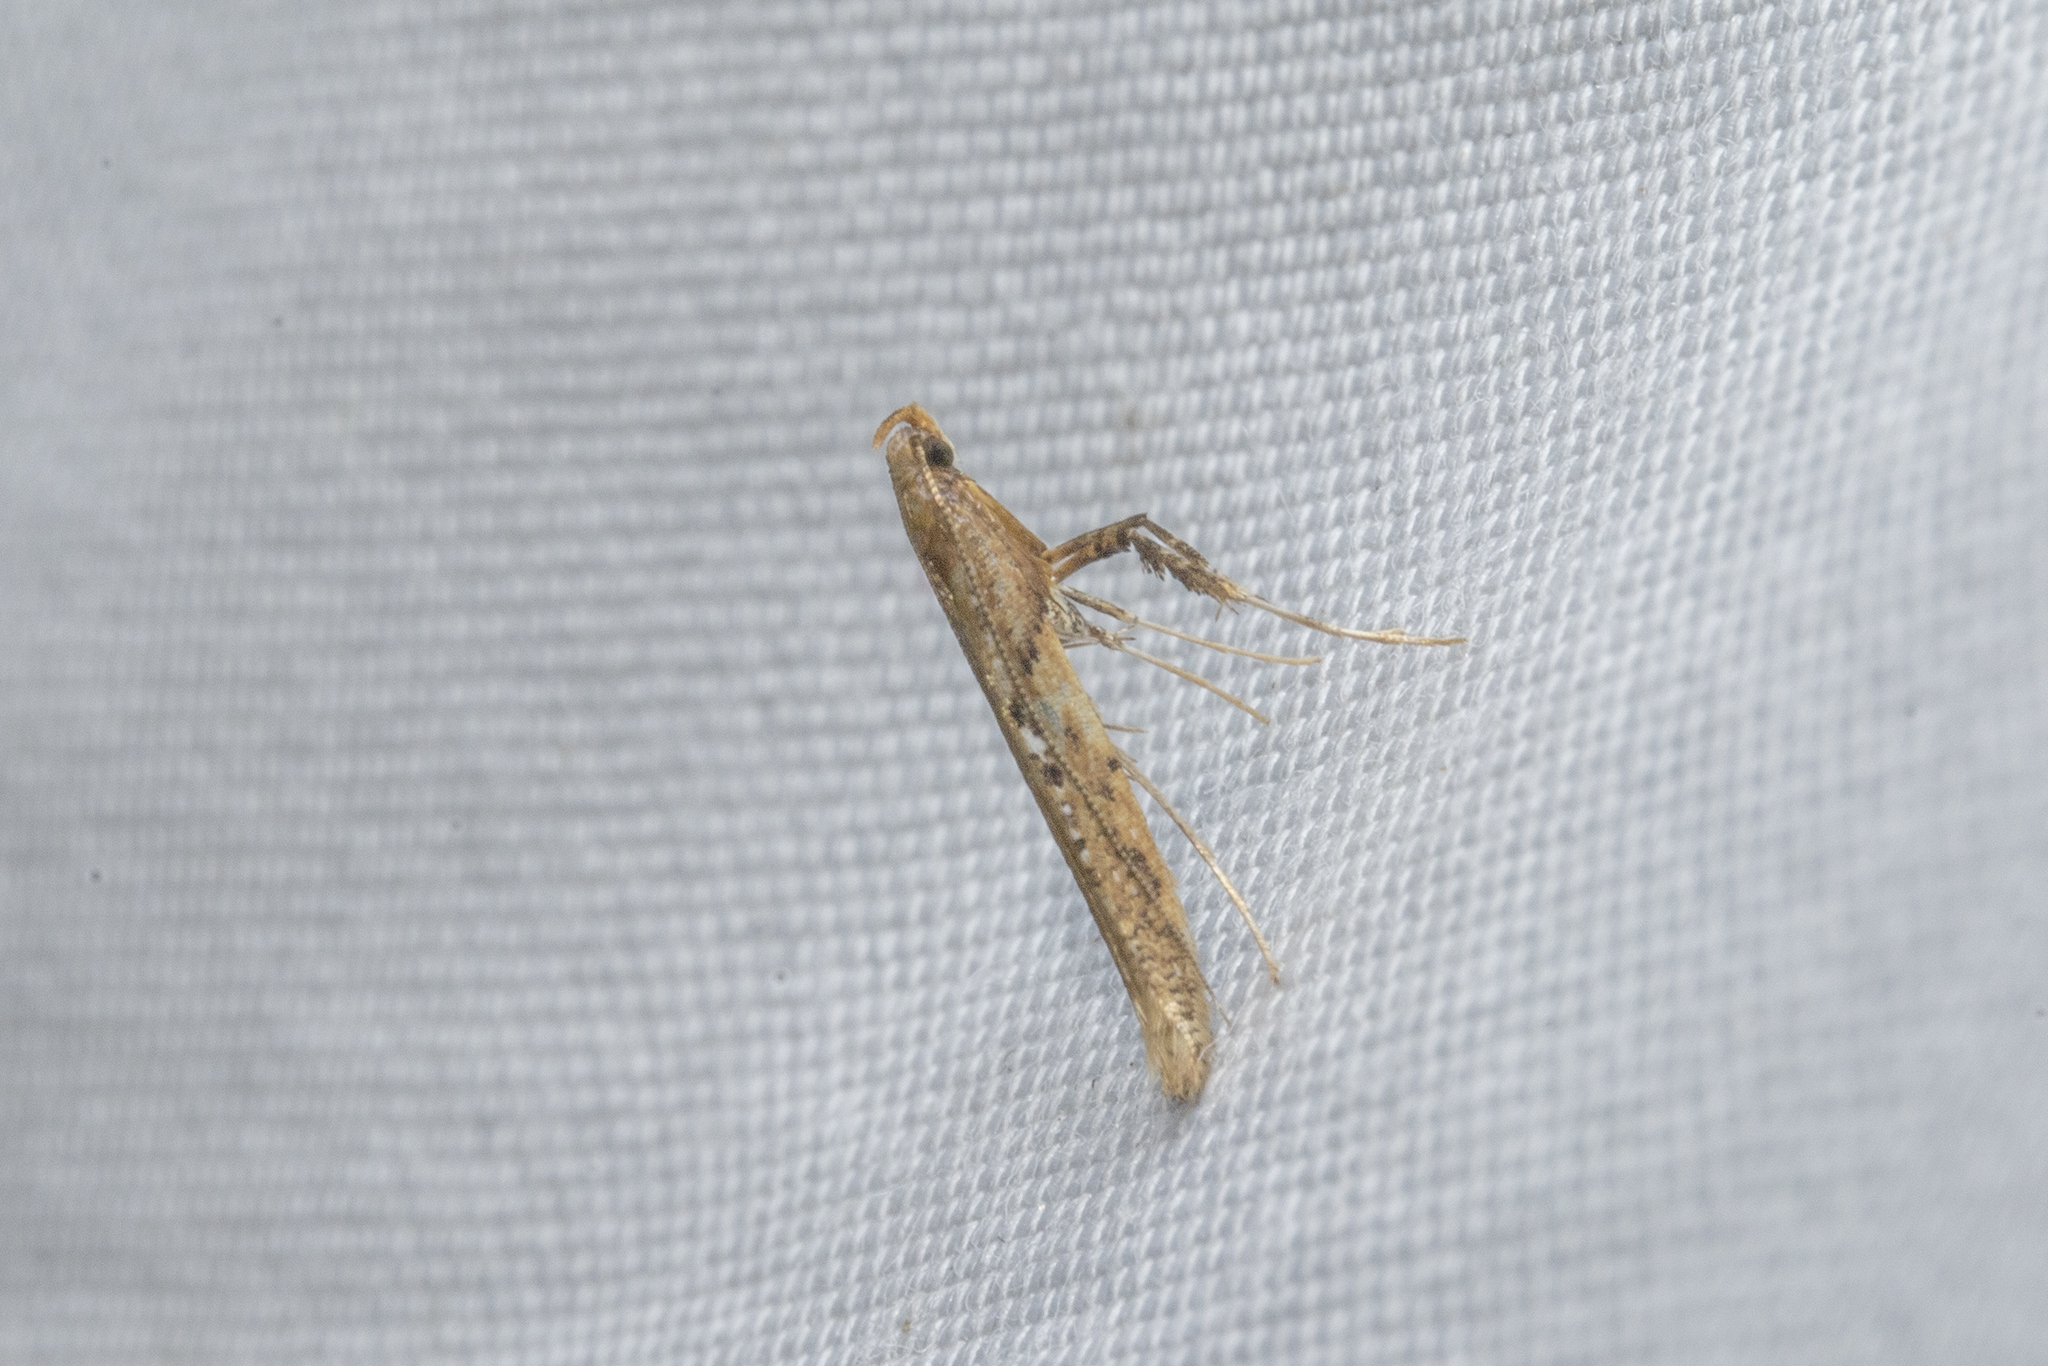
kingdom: Animalia
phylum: Arthropoda
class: Insecta
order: Lepidoptera
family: Gracillariidae
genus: Caloptilia
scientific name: Caloptilia linearis
